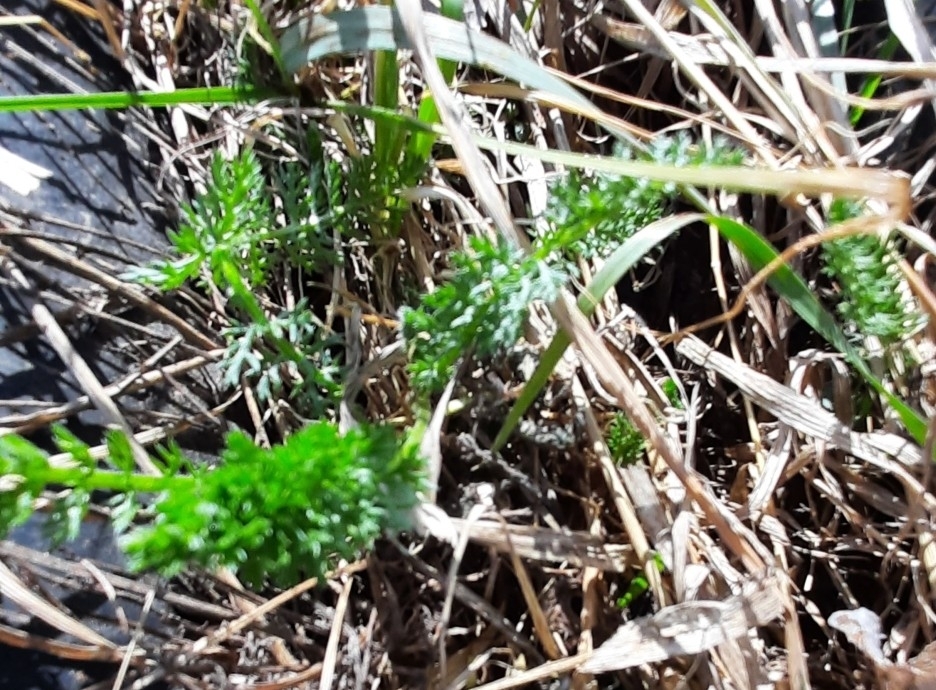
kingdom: Plantae
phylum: Tracheophyta
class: Magnoliopsida
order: Asterales
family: Asteraceae
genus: Achillea
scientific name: Achillea millefolium
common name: Yarrow
